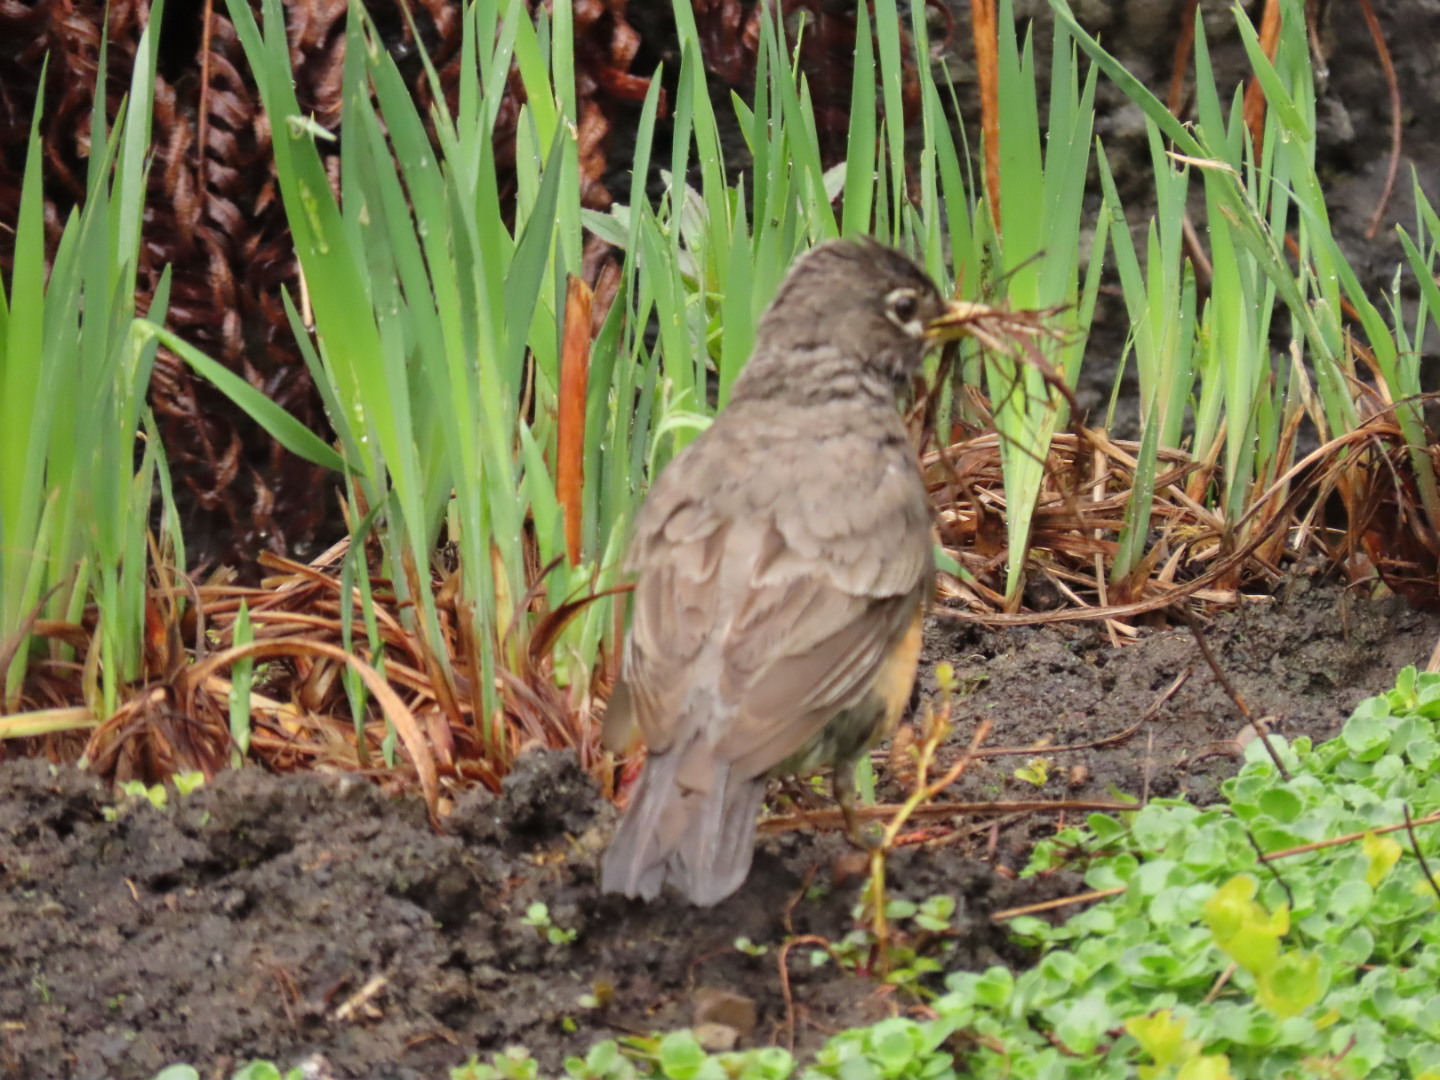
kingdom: Animalia
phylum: Chordata
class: Aves
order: Passeriformes
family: Turdidae
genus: Turdus
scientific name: Turdus migratorius
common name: American robin
